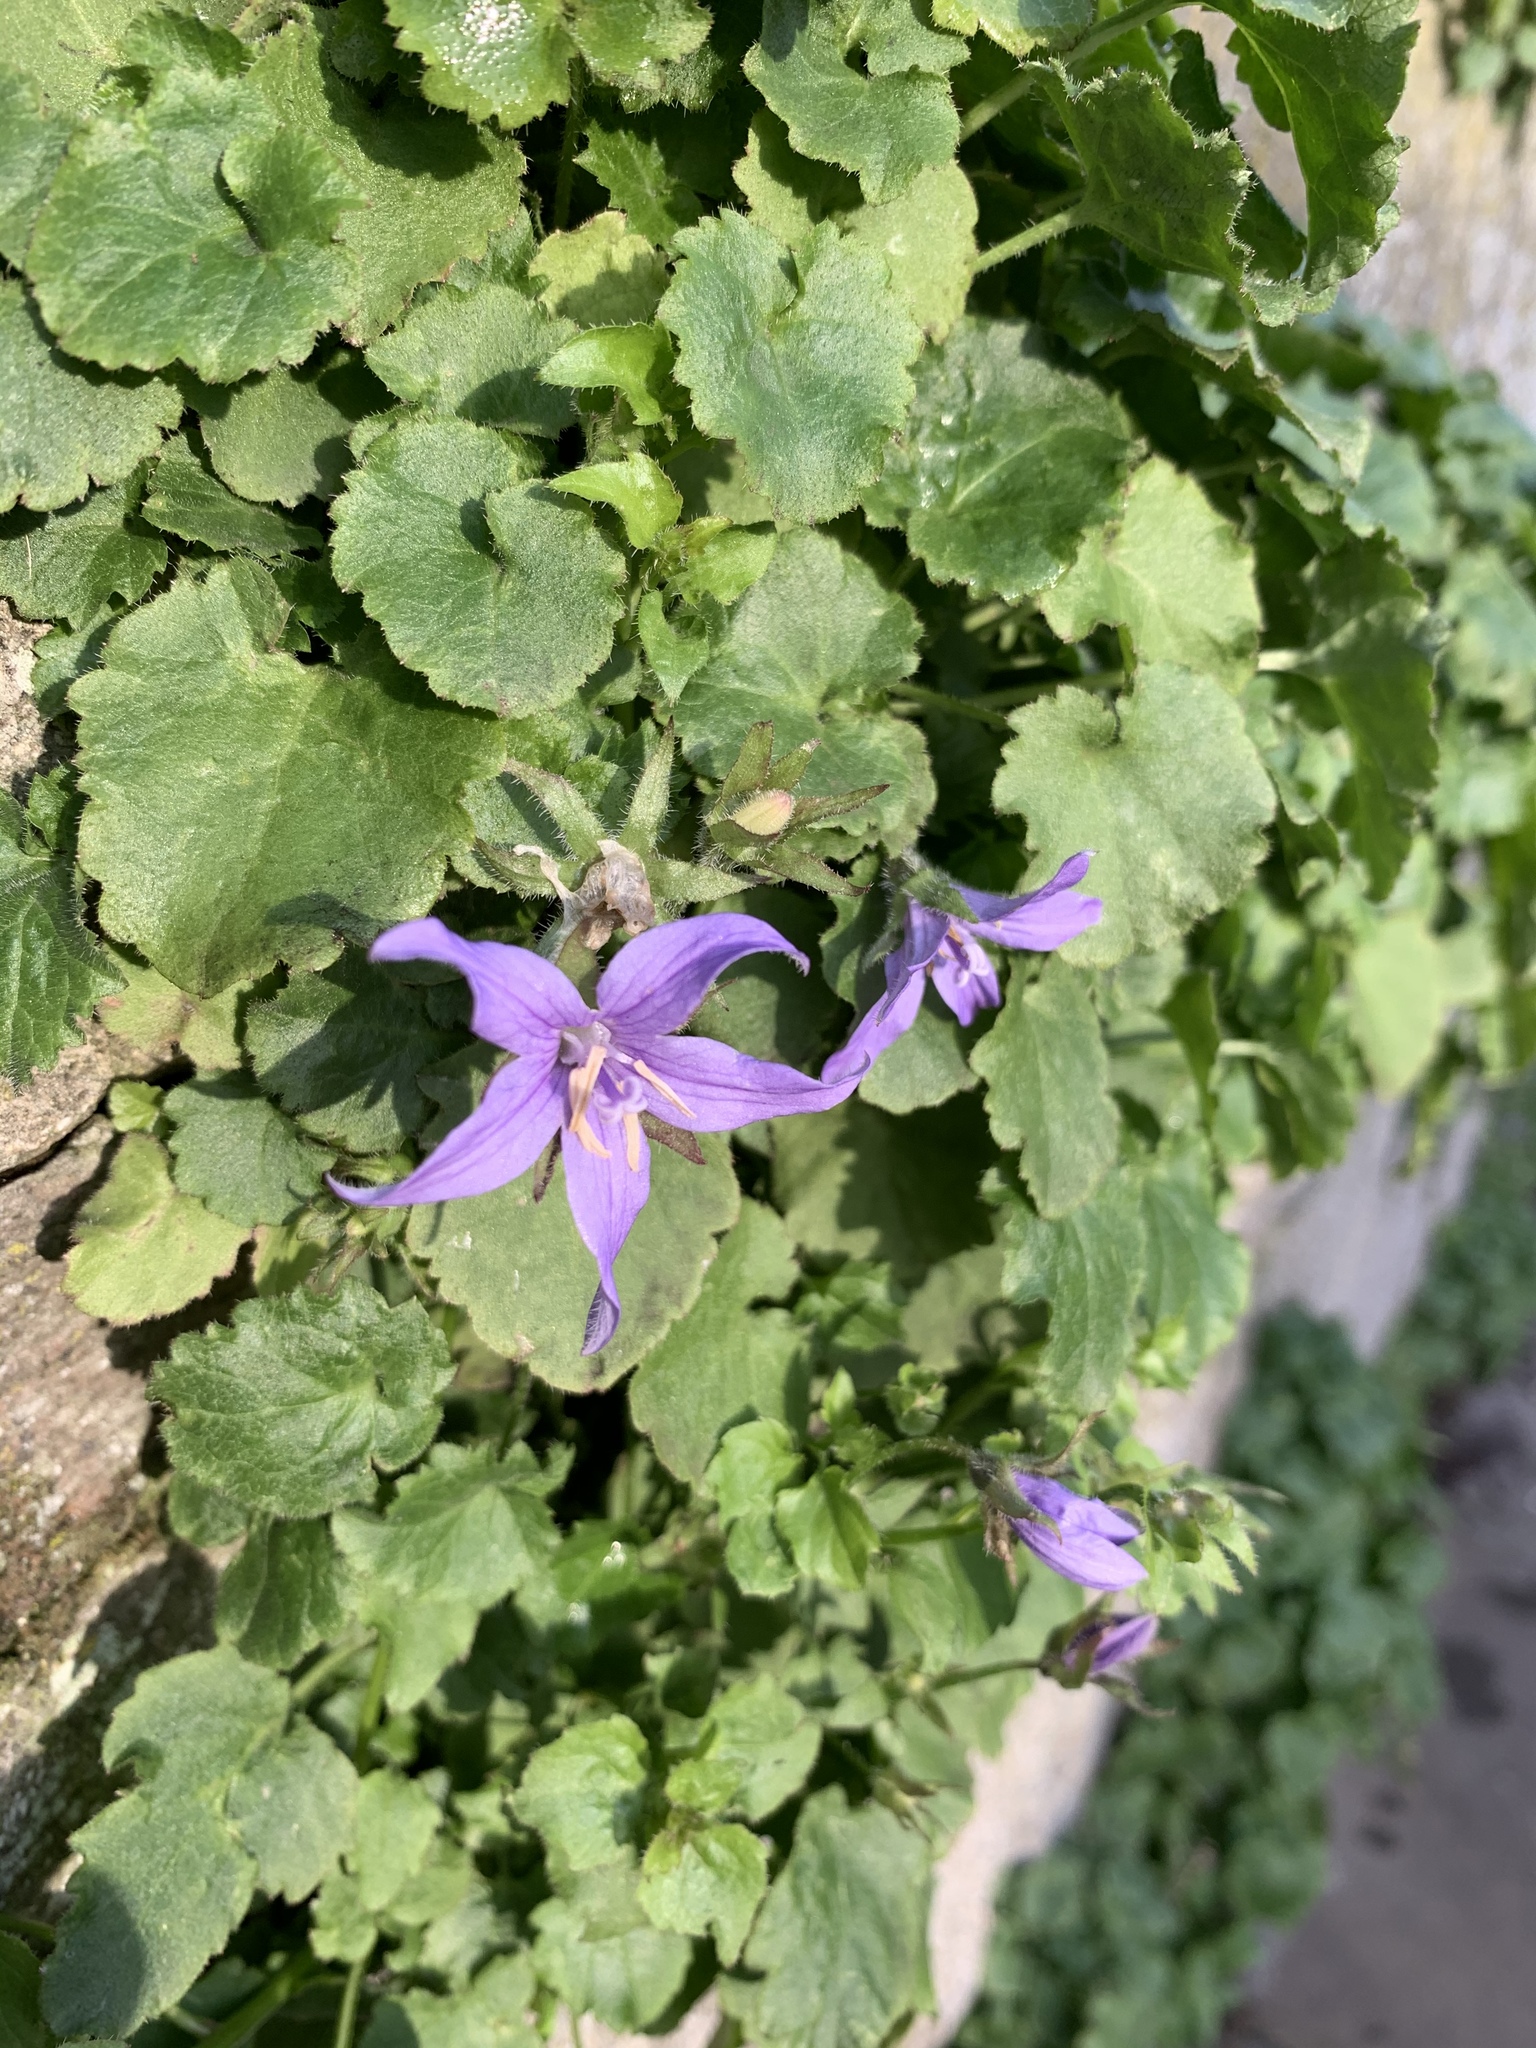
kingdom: Plantae
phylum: Tracheophyta
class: Magnoliopsida
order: Asterales
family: Campanulaceae
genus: Campanula
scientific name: Campanula poscharskyana
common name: Trailing bellflower
